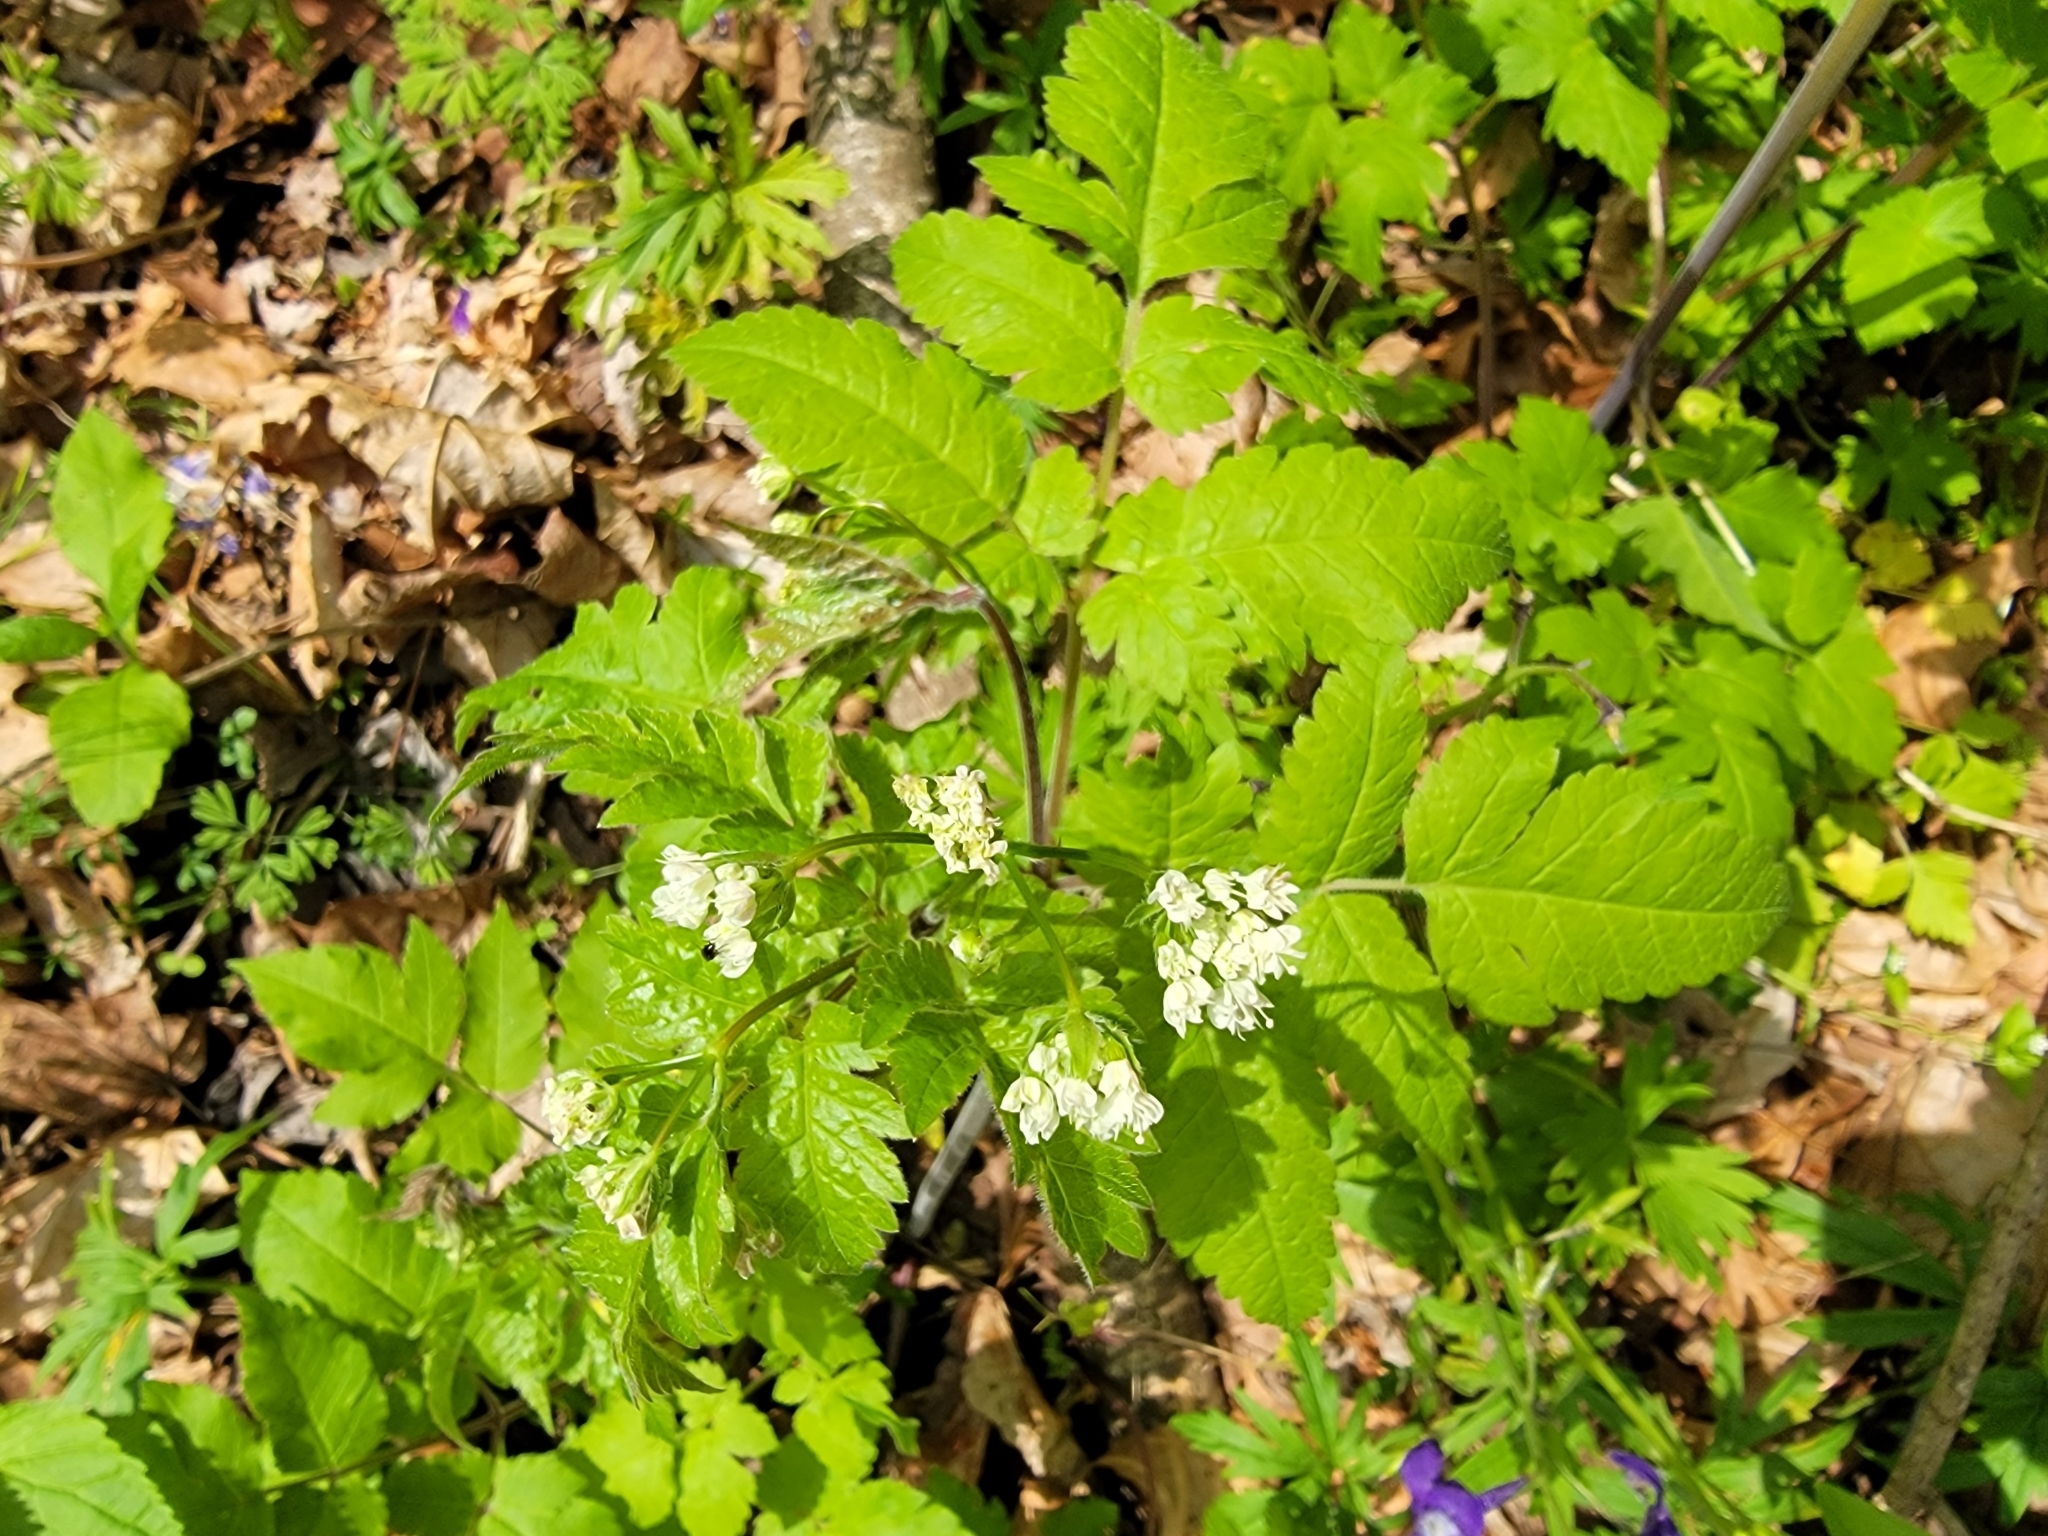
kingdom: Plantae
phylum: Tracheophyta
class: Magnoliopsida
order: Apiales
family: Apiaceae
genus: Osmorhiza
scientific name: Osmorhiza longistylis
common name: Smooth sweet cicely
